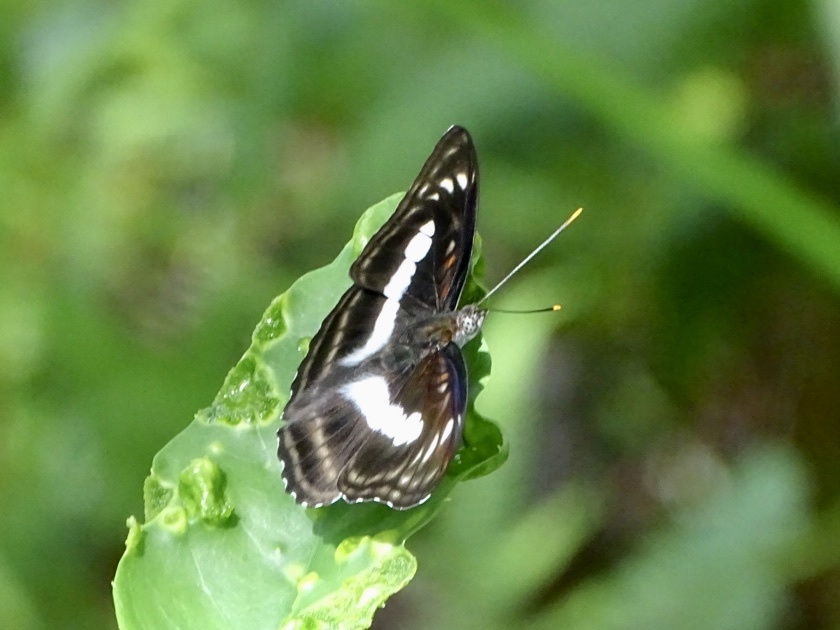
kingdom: Animalia
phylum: Arthropoda
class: Insecta
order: Lepidoptera
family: Nymphalidae
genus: Parathyma
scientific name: Parathyma selenophora
